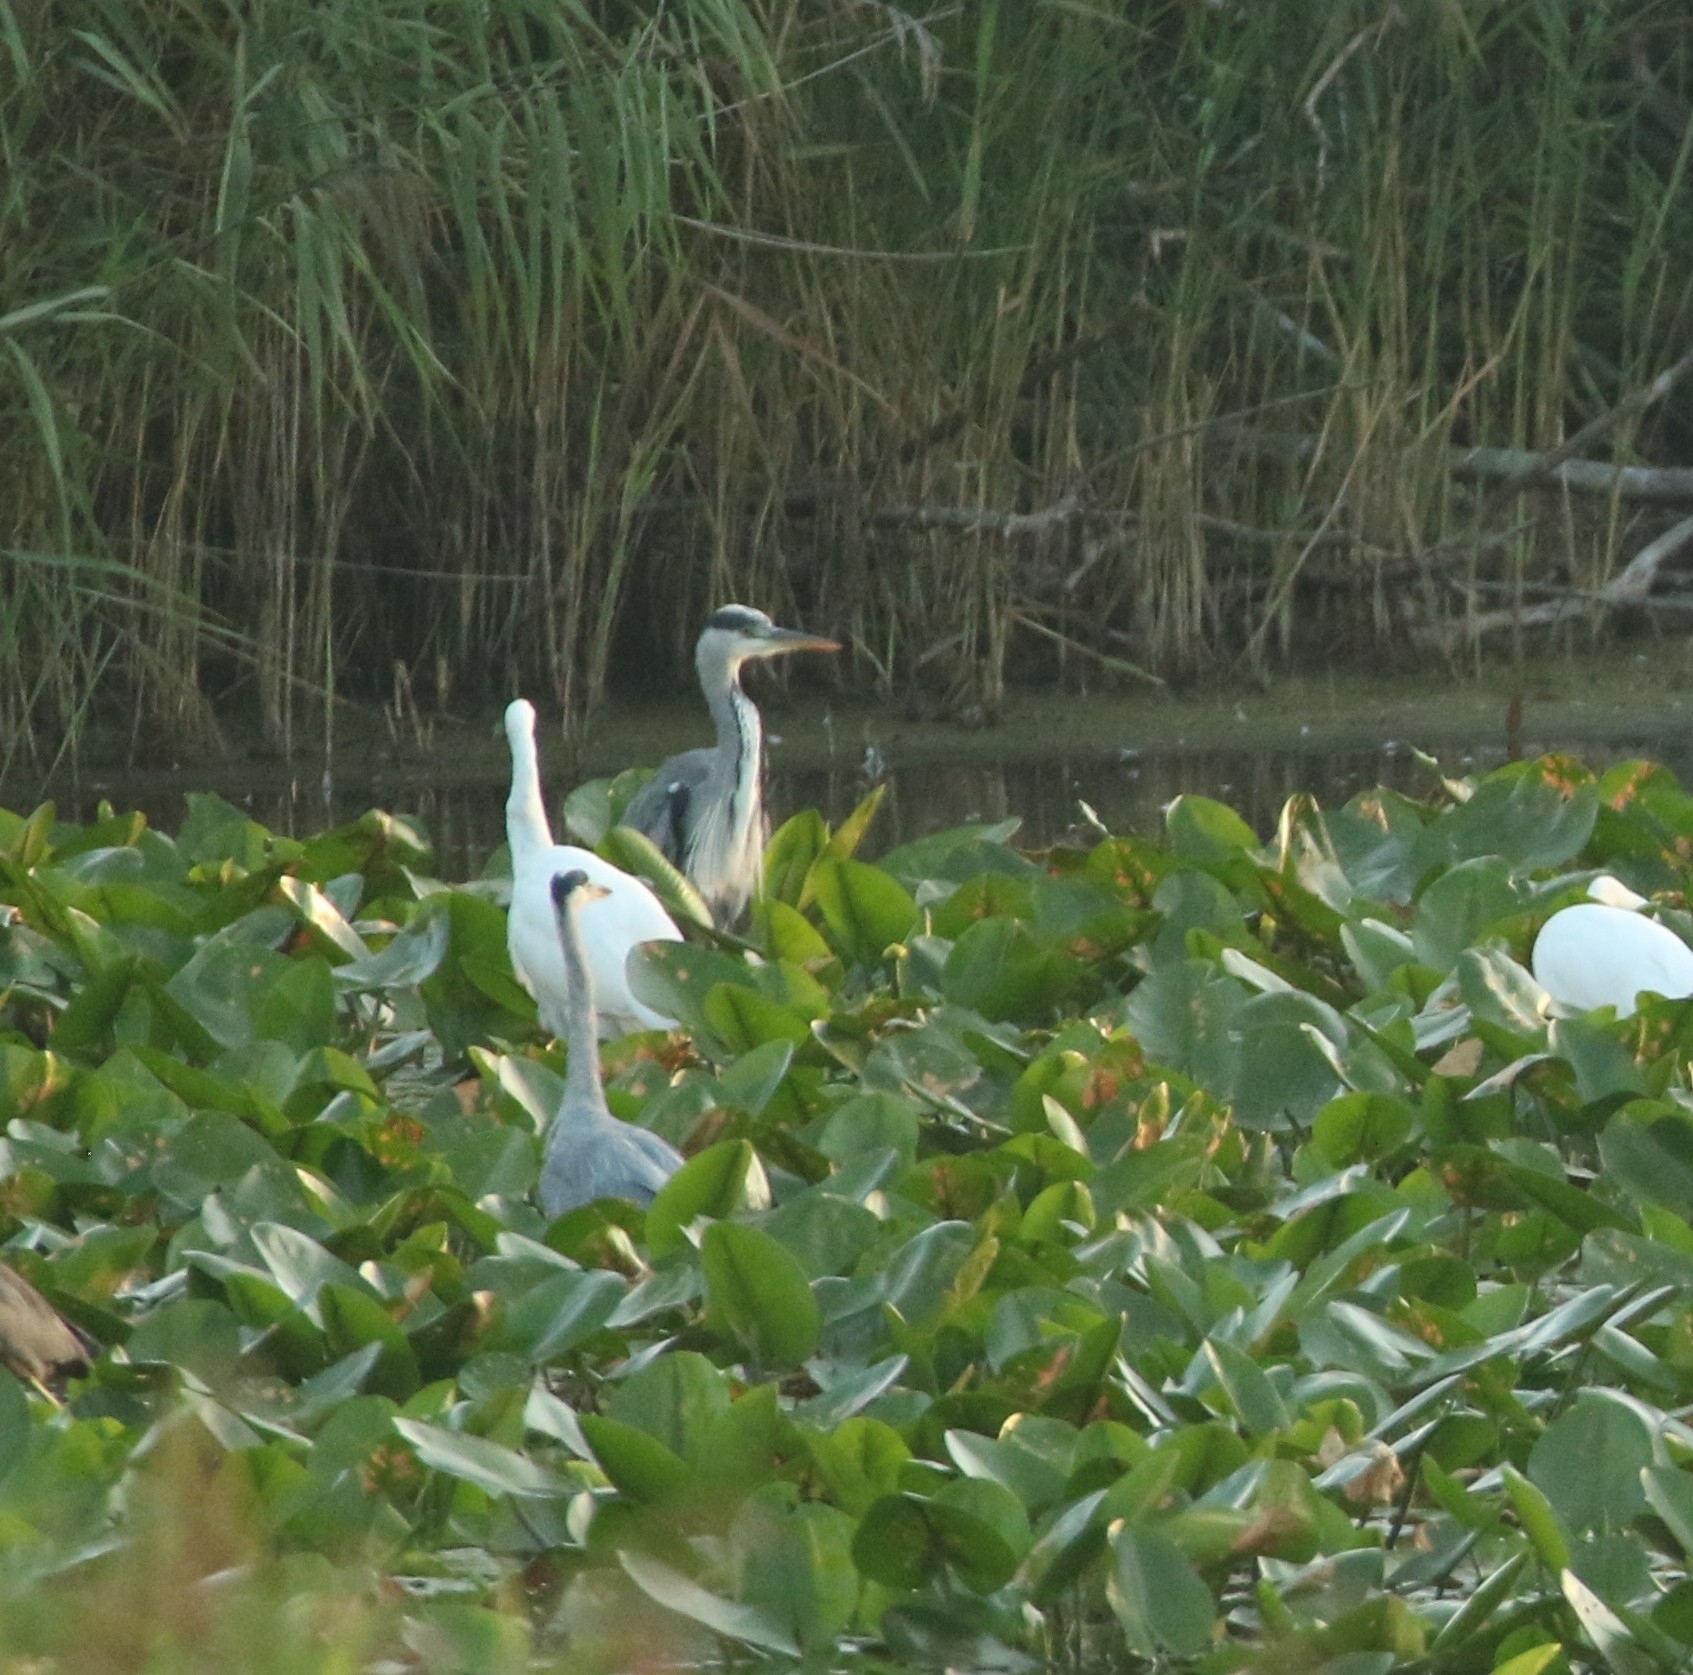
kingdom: Animalia
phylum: Chordata
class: Aves
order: Pelecaniformes
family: Ardeidae
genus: Ardea
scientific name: Ardea cinerea
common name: Grey heron
